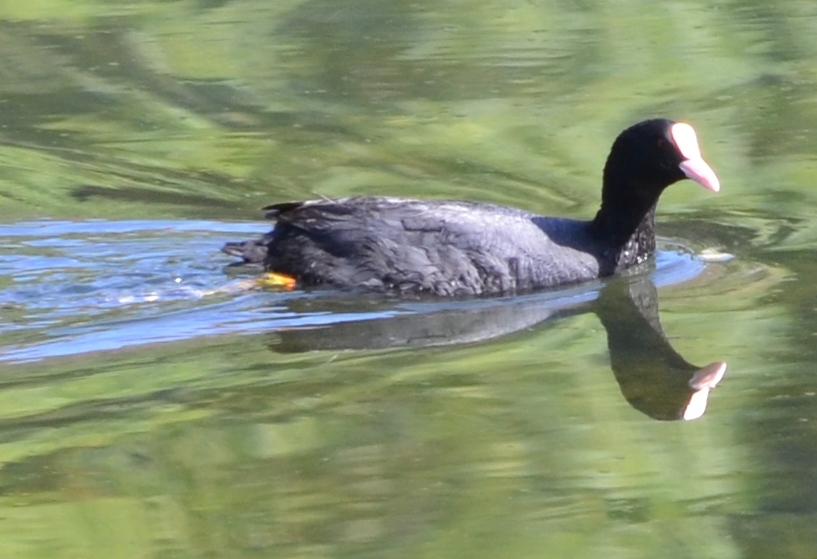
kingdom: Animalia
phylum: Chordata
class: Aves
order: Gruiformes
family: Rallidae
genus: Fulica
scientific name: Fulica atra
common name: Eurasian coot
